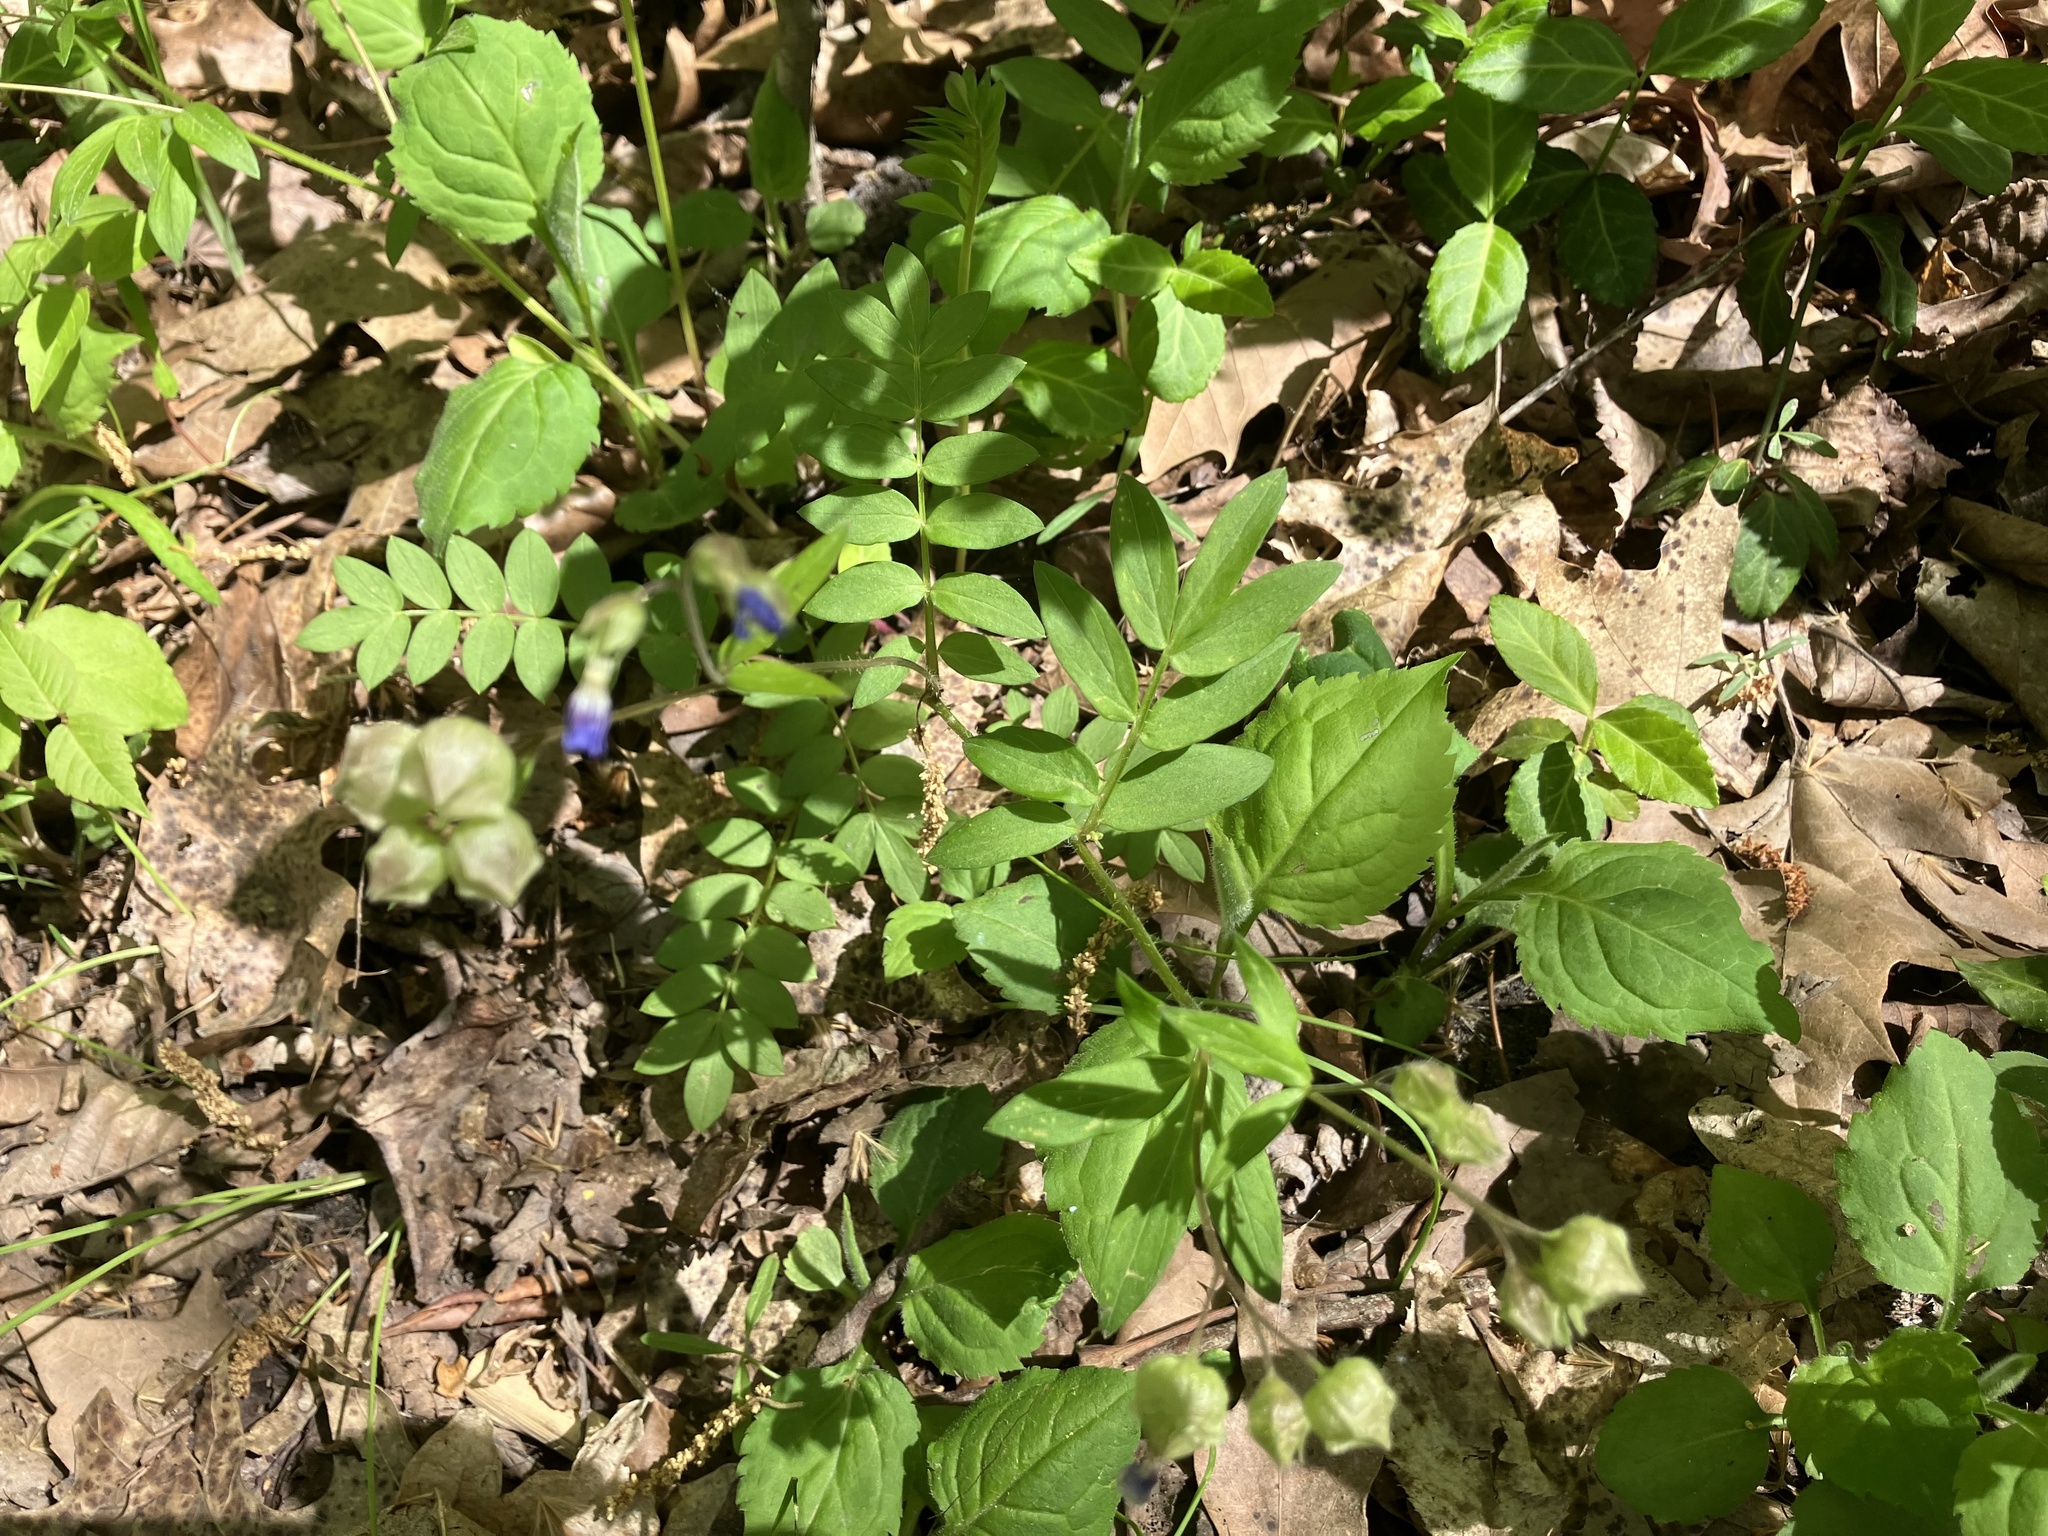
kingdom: Plantae
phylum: Tracheophyta
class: Magnoliopsida
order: Ericales
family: Polemoniaceae
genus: Polemonium
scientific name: Polemonium reptans
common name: Creeping jacob's-ladder
